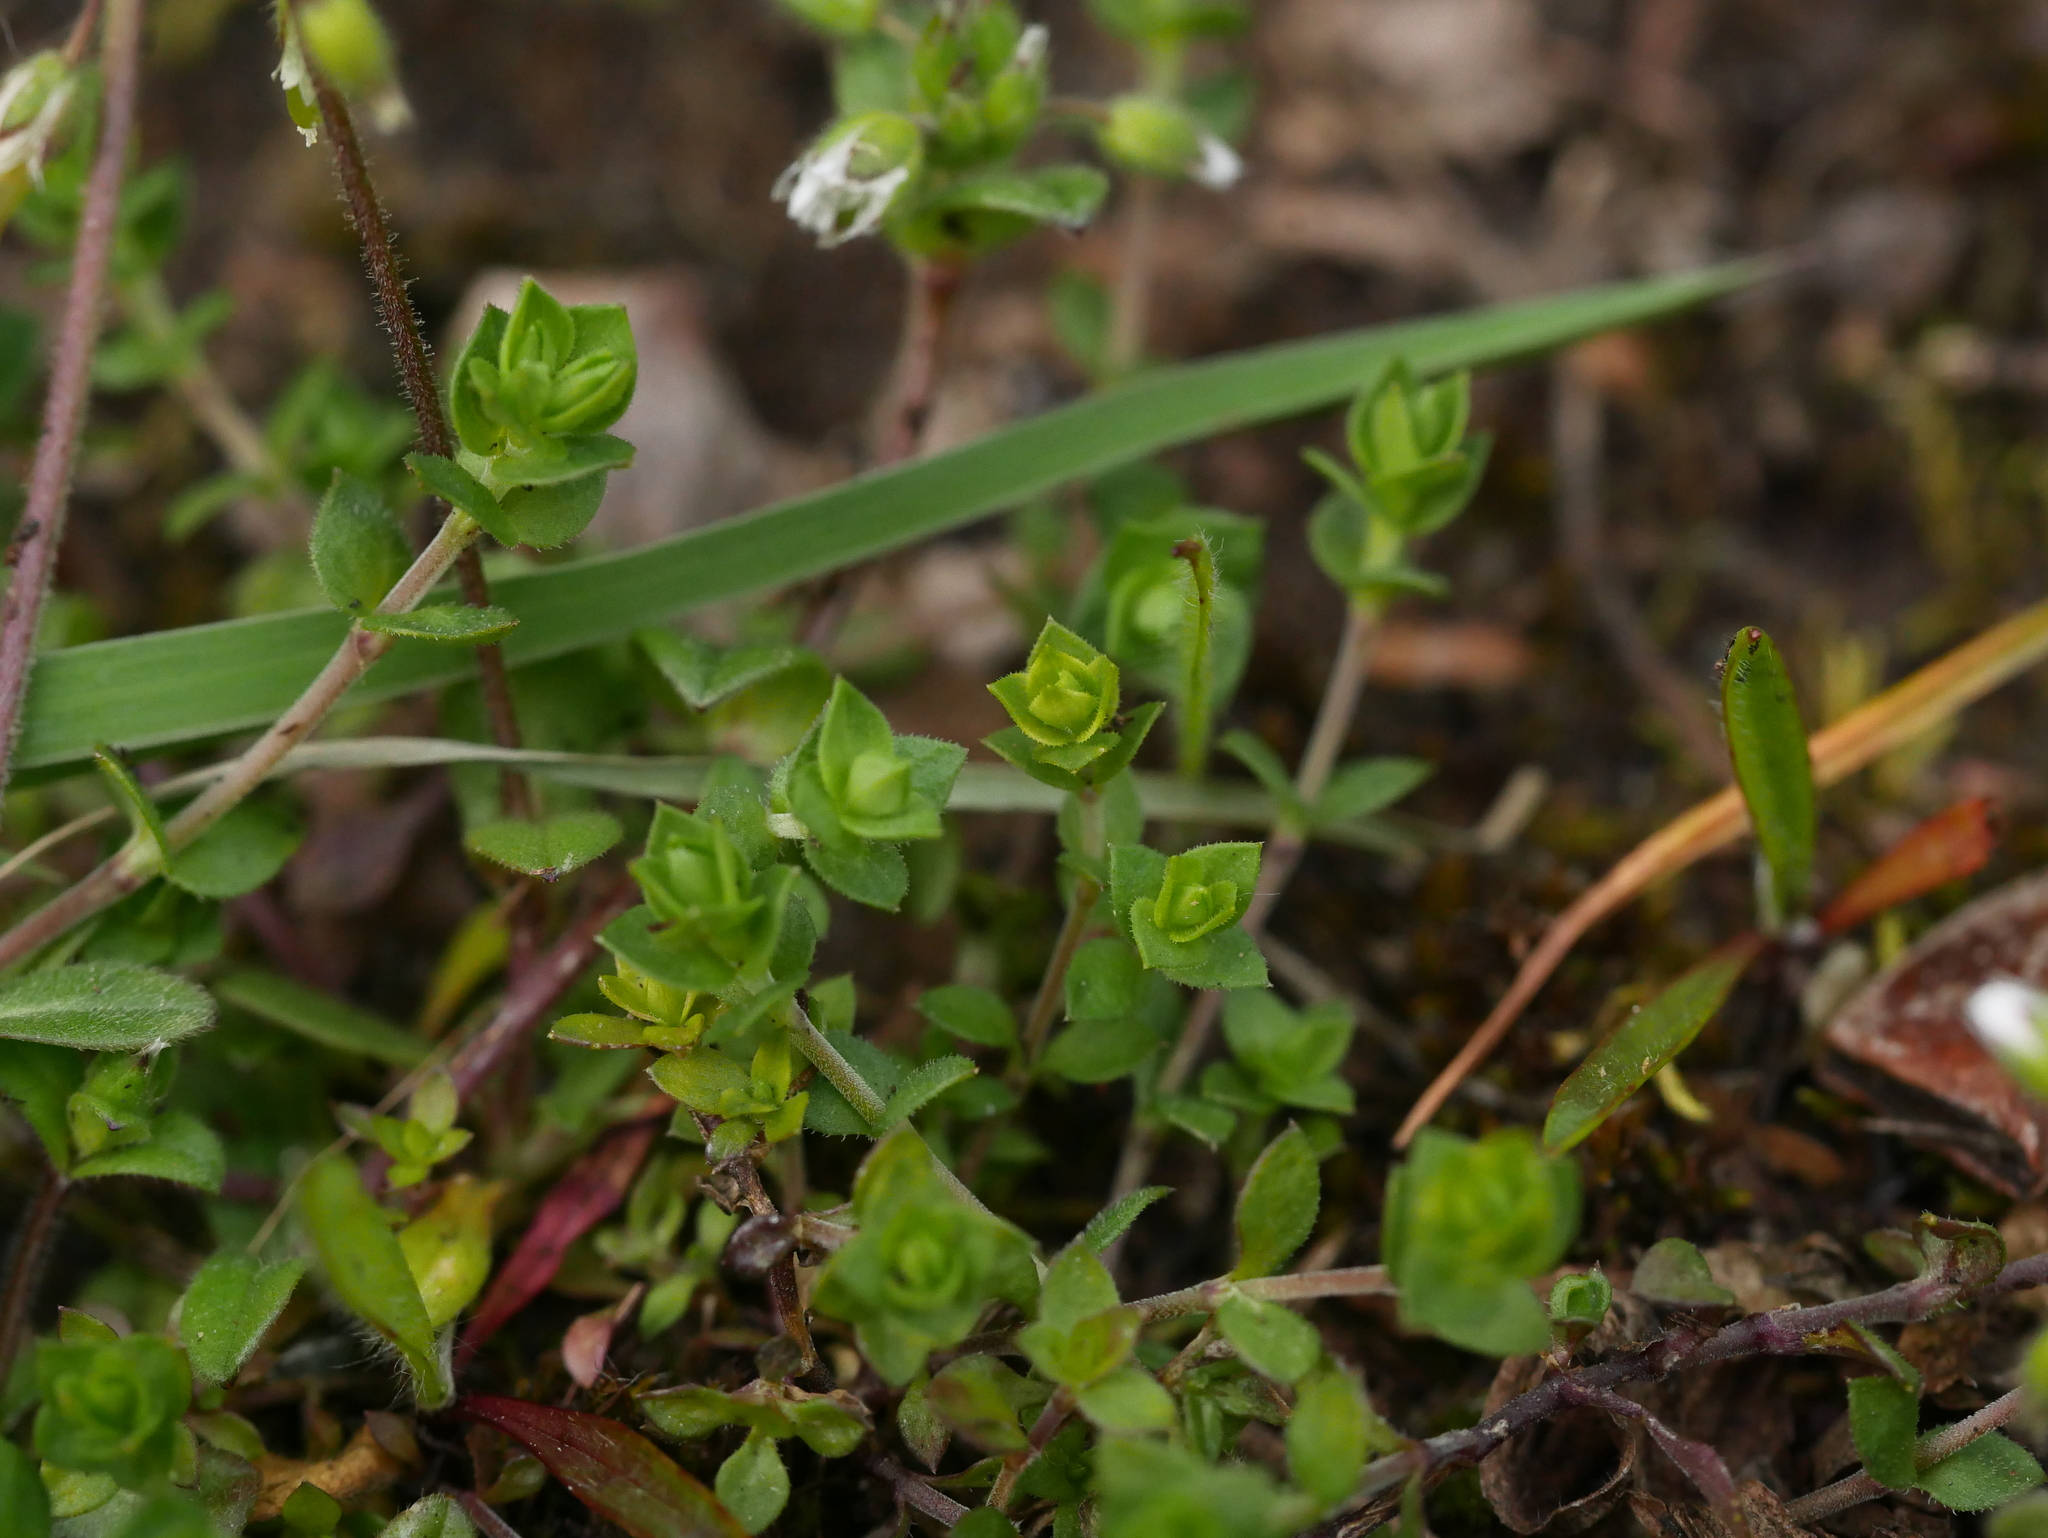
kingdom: Plantae
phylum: Tracheophyta
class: Magnoliopsida
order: Caryophyllales
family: Caryophyllaceae
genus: Arenaria
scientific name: Arenaria serpyllifolia
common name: Thyme-leaved sandwort
